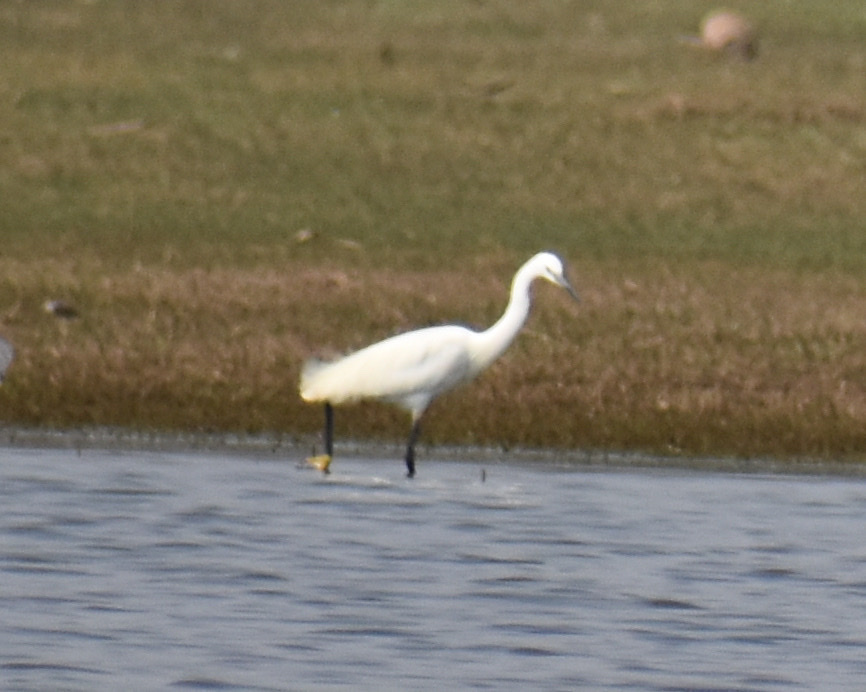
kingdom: Animalia
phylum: Chordata
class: Aves
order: Pelecaniformes
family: Ardeidae
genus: Egretta
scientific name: Egretta garzetta
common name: Little egret
